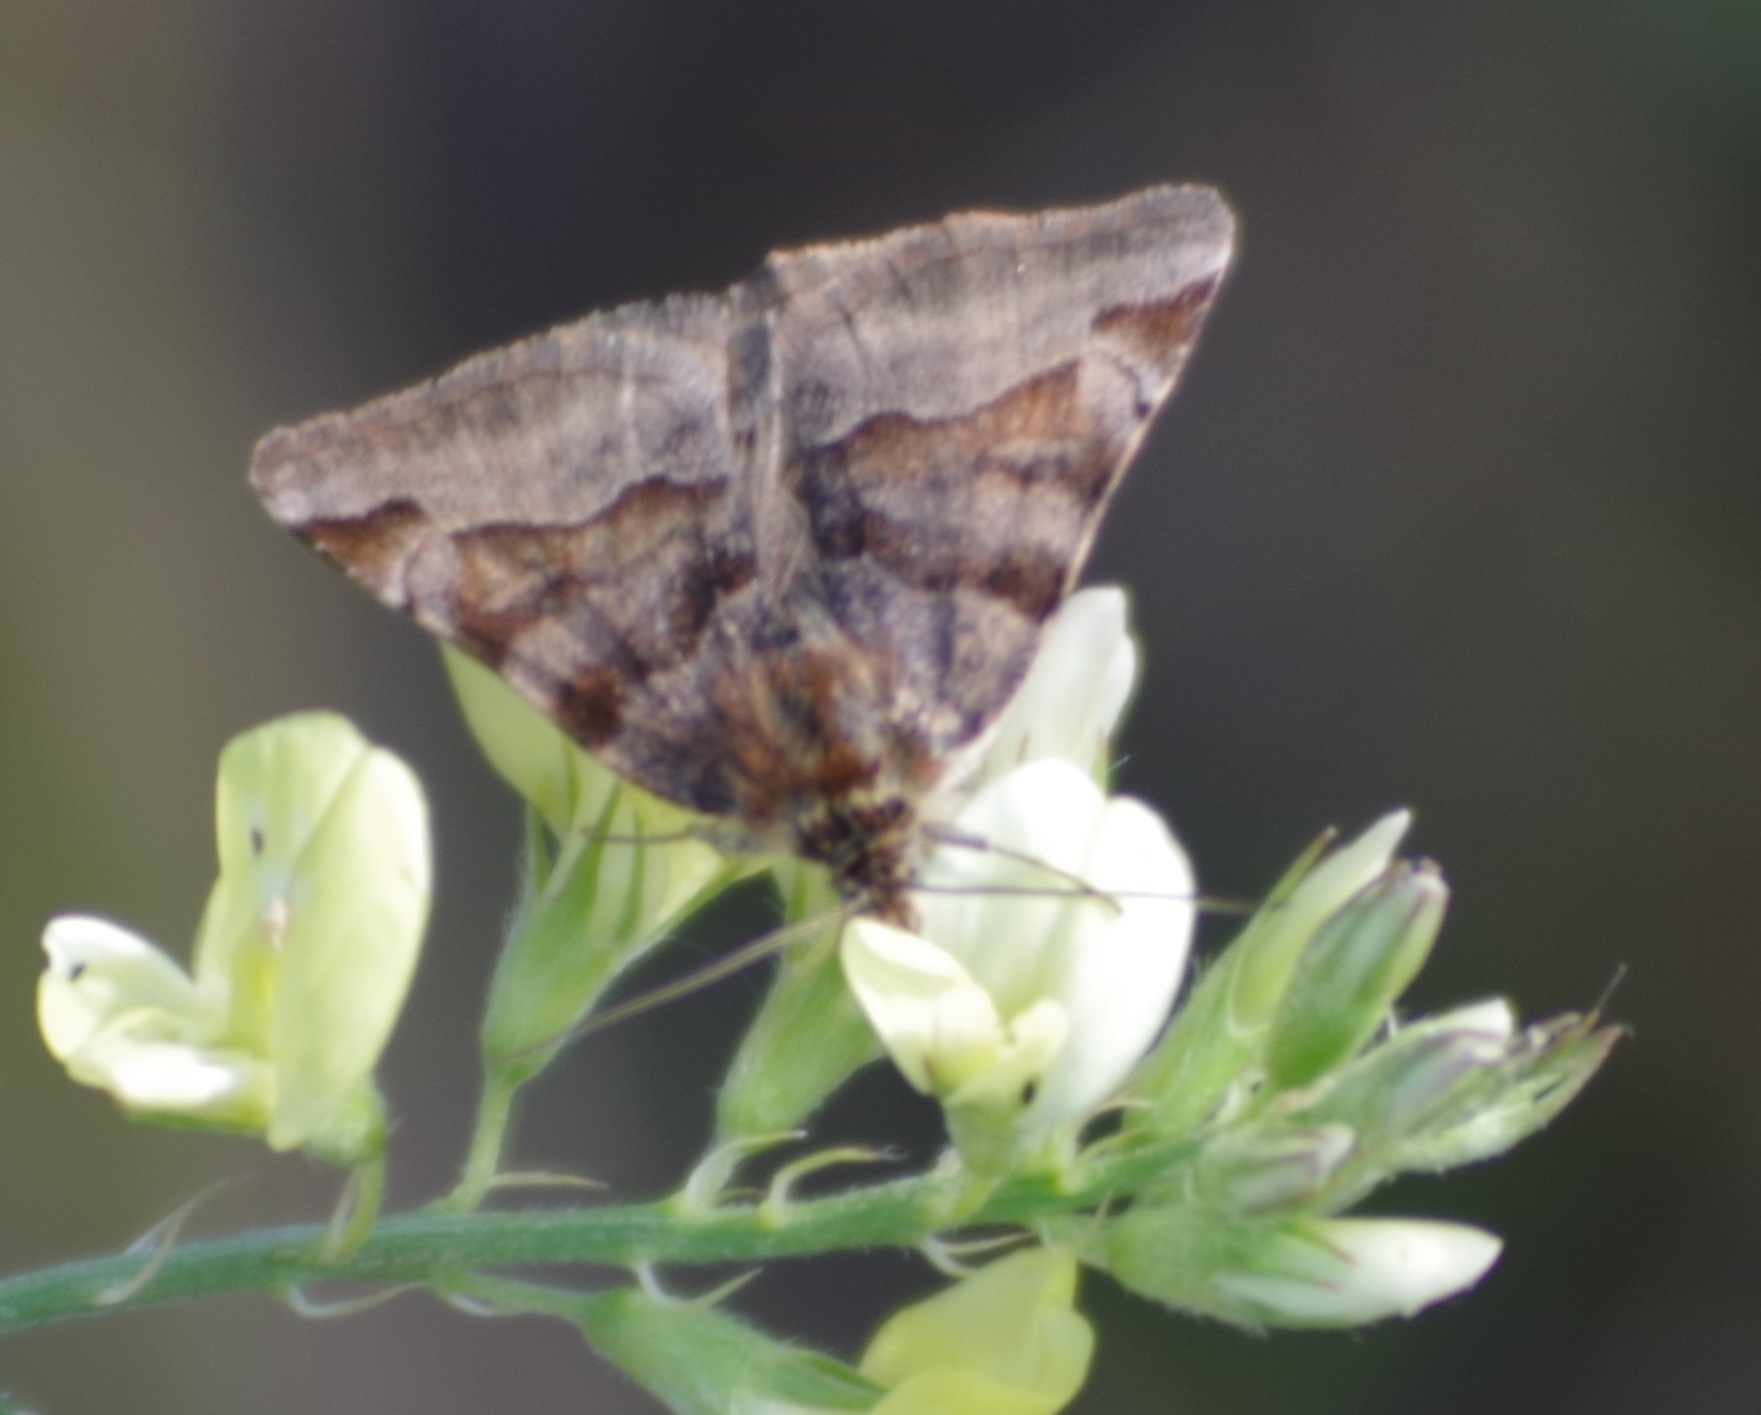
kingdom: Animalia
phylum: Arthropoda
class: Insecta
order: Lepidoptera
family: Erebidae
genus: Euclidia
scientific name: Euclidia glyphica
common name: Burnet companion
